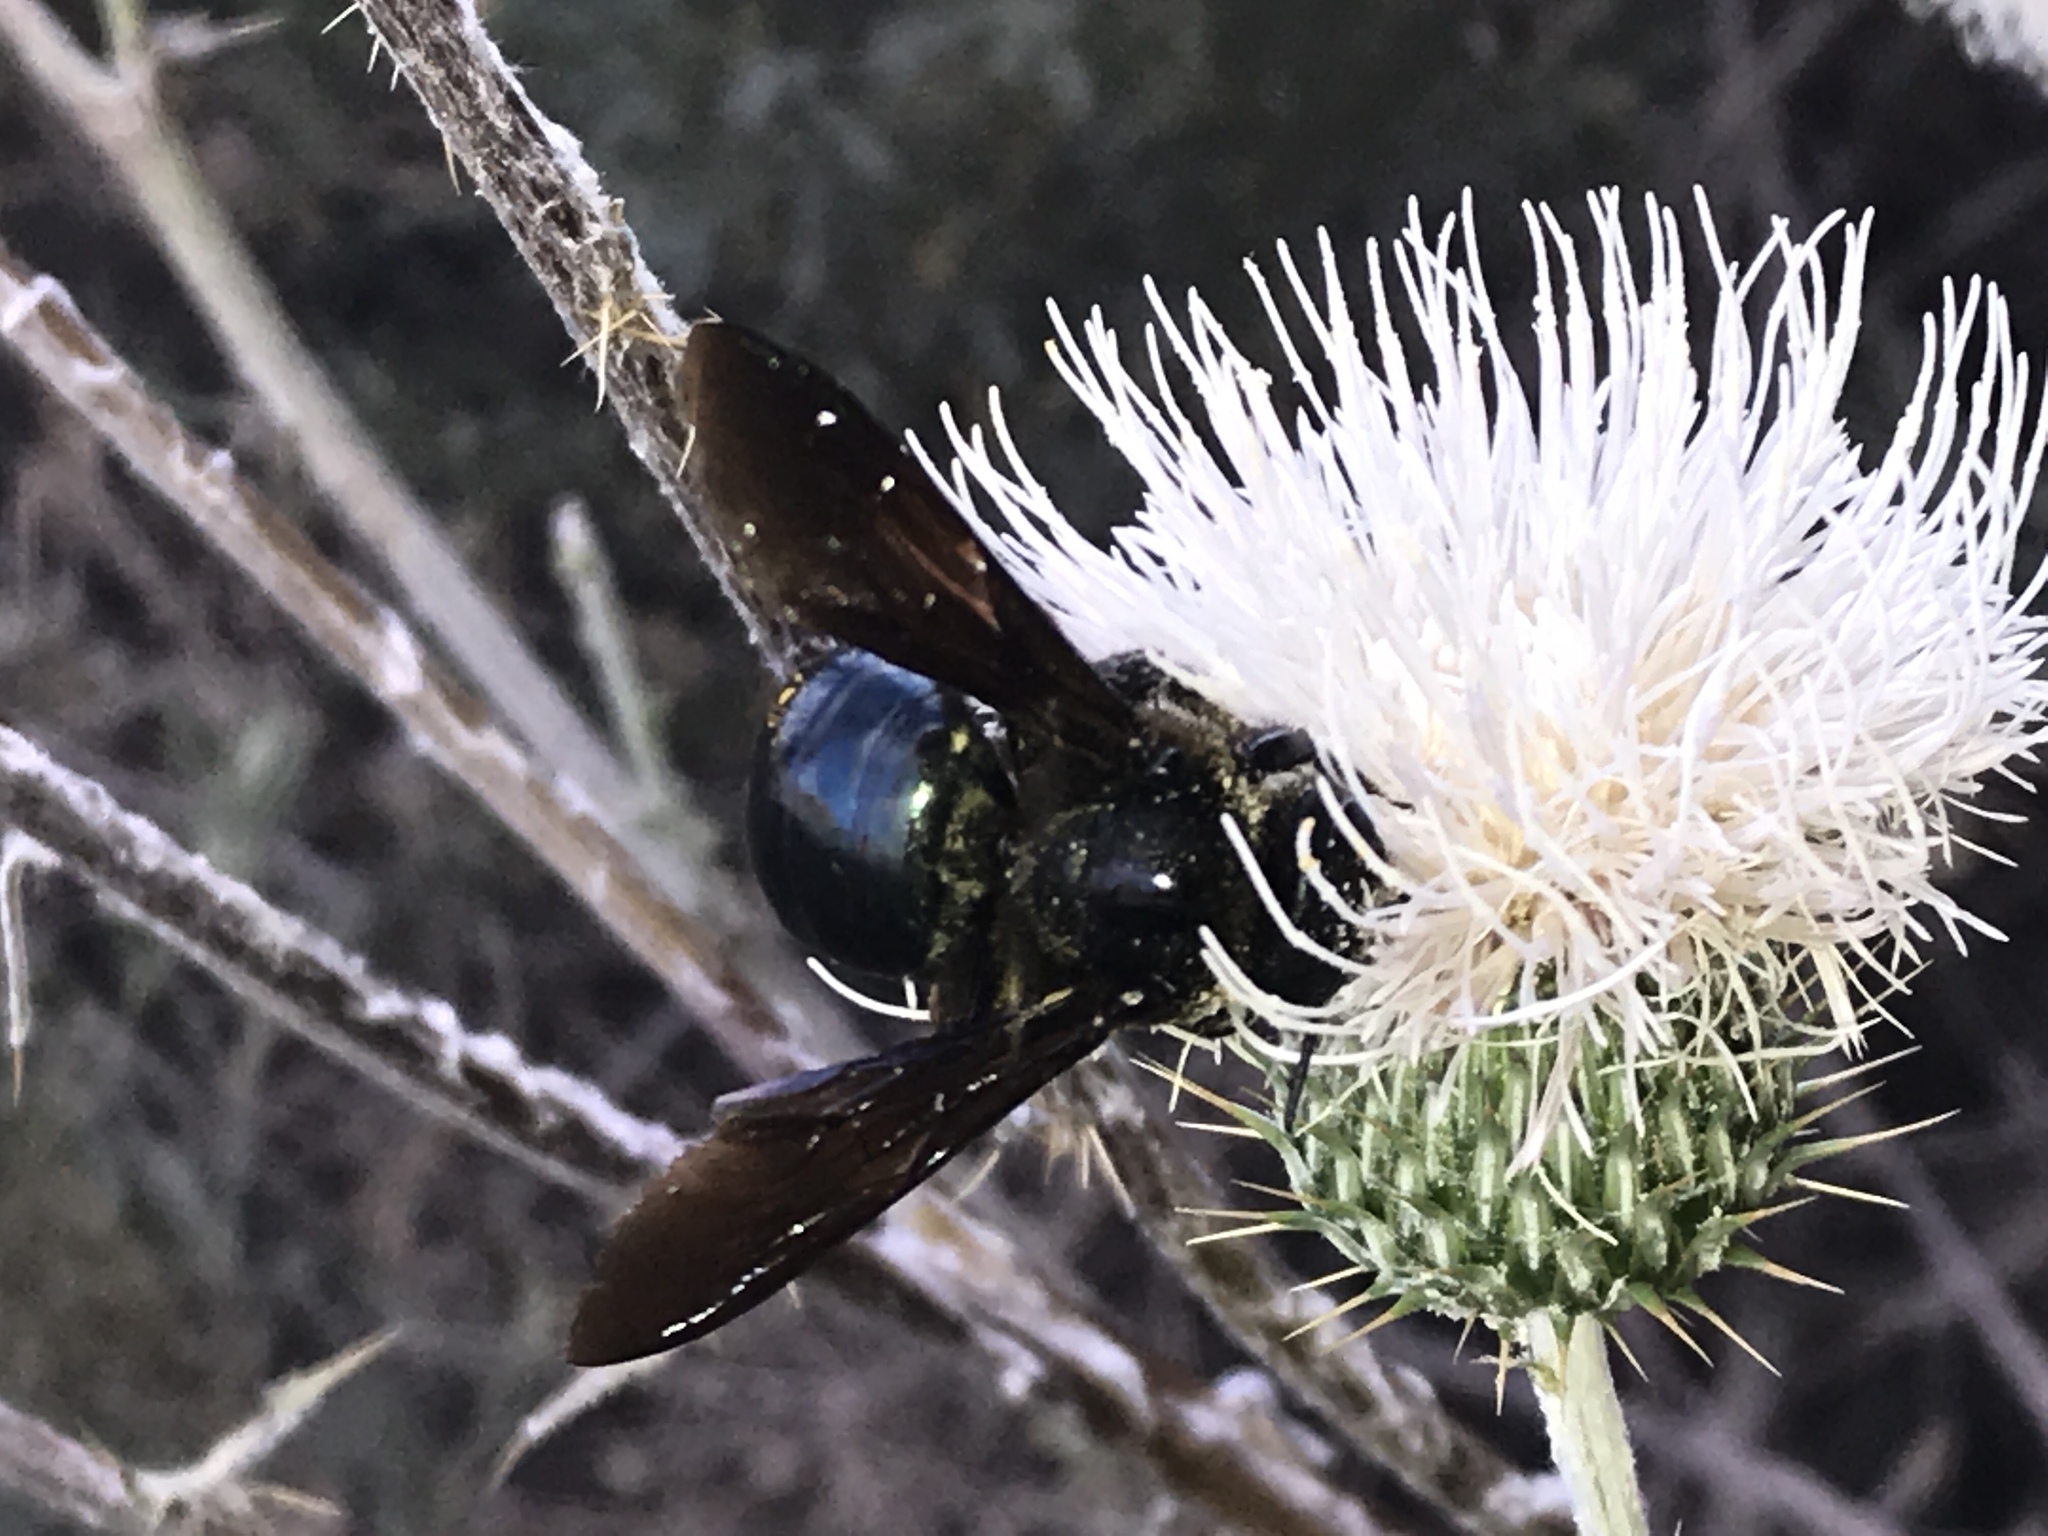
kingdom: Animalia
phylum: Arthropoda
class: Insecta
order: Hymenoptera
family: Apidae
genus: Xylocopa
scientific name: Xylocopa californica
